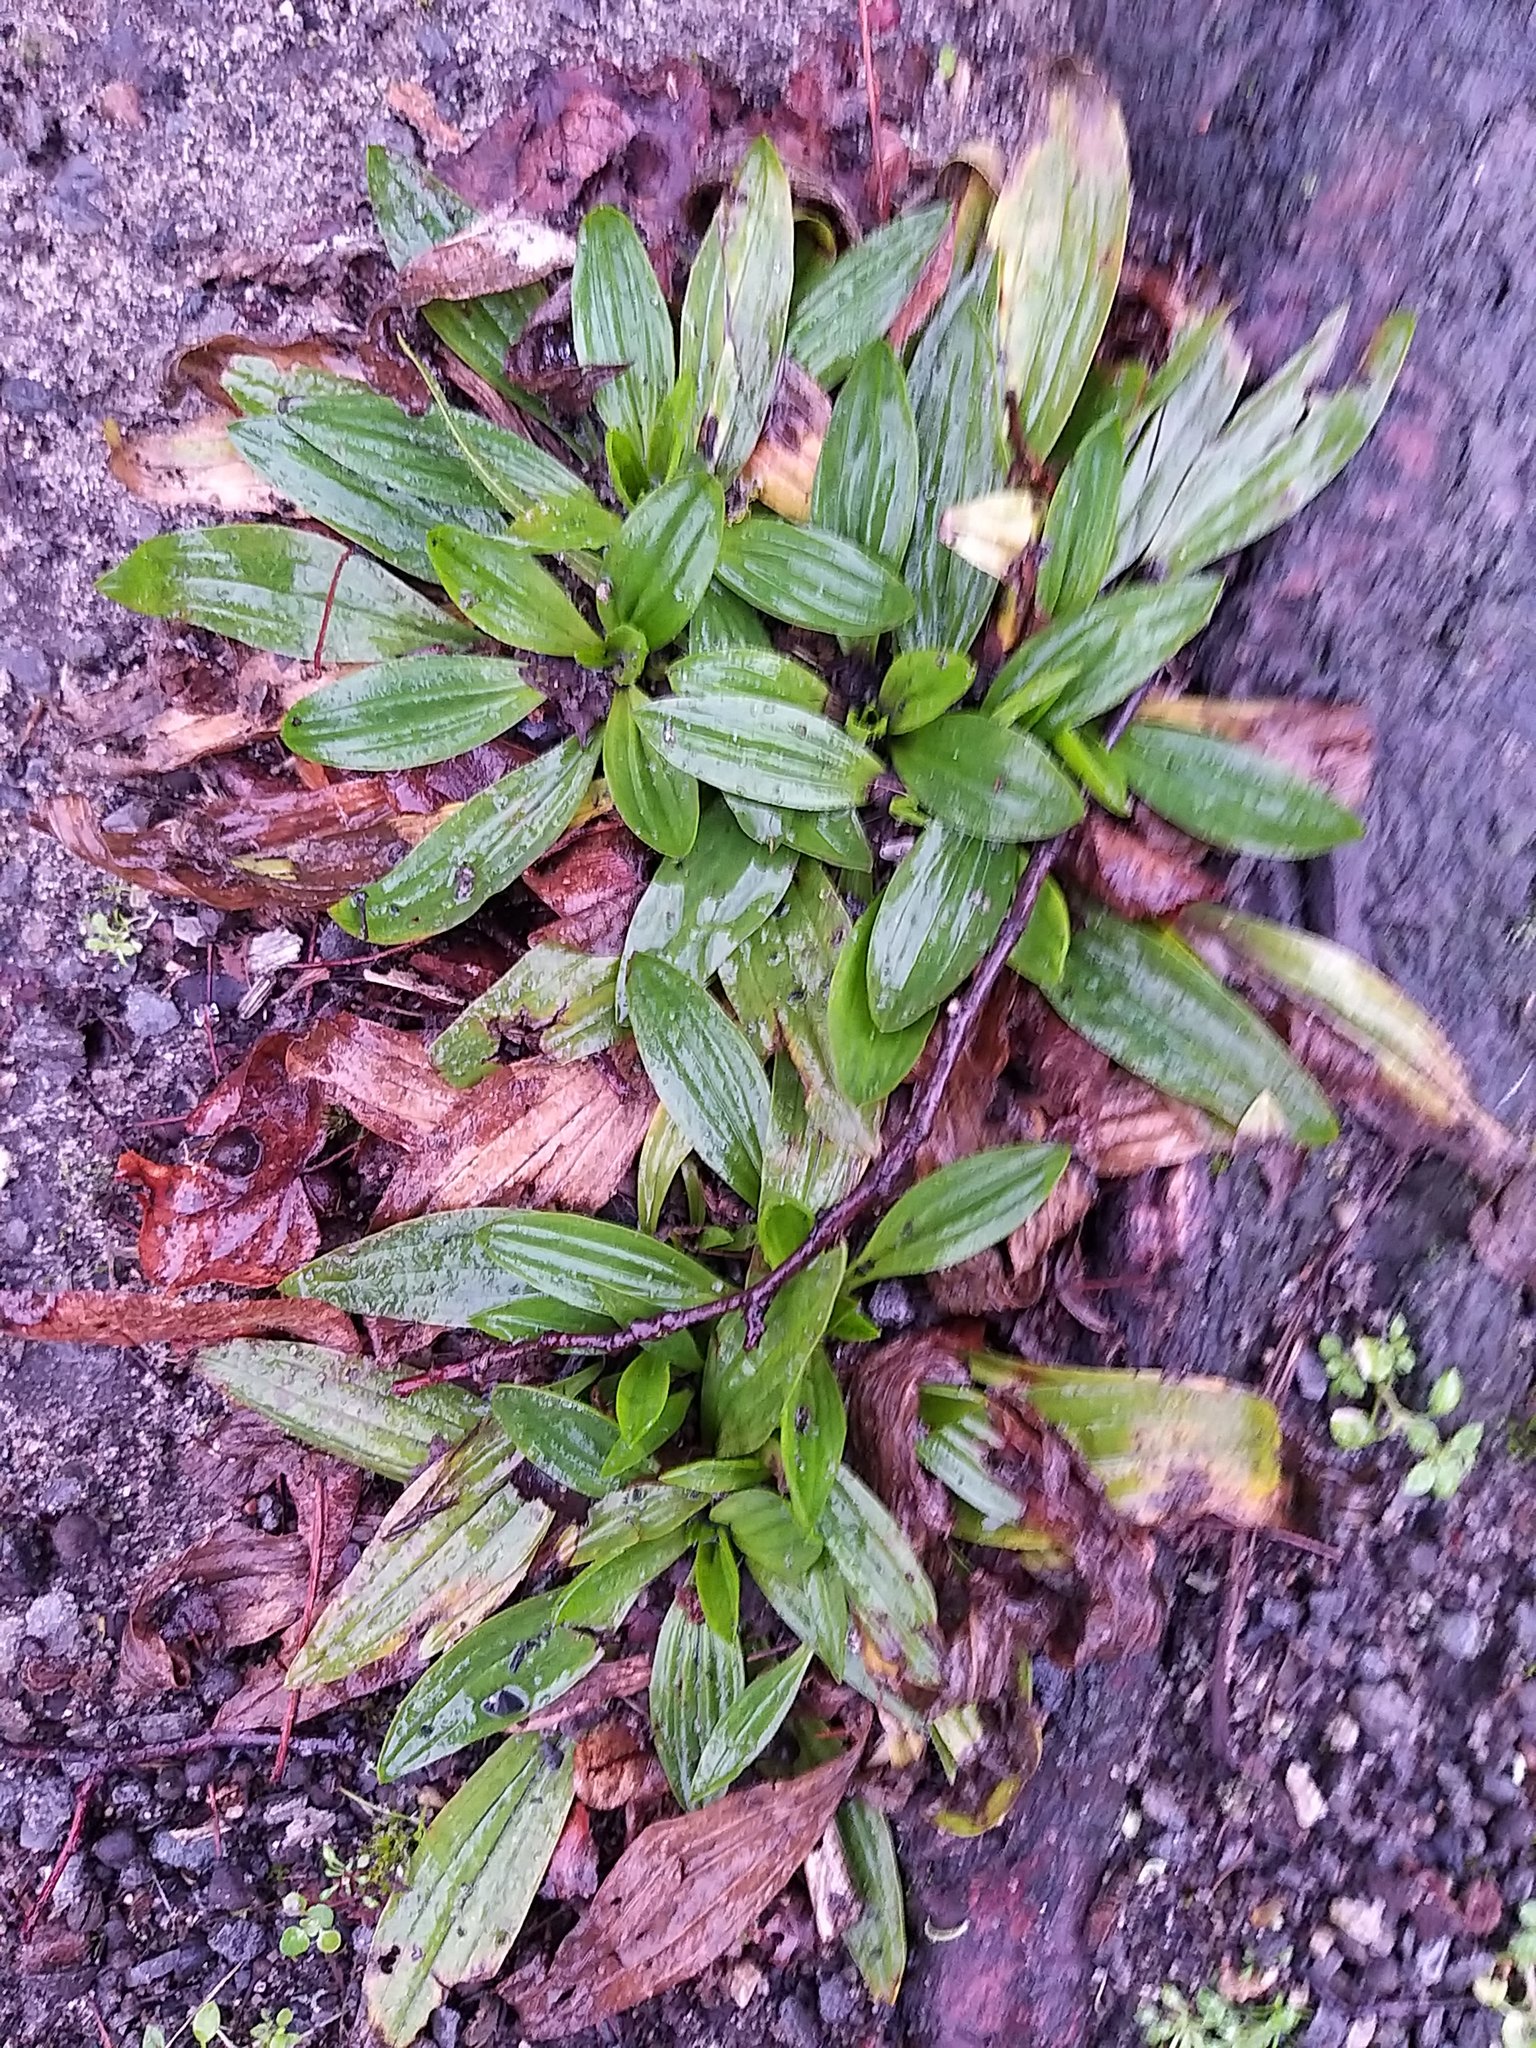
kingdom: Plantae
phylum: Tracheophyta
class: Magnoliopsida
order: Lamiales
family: Plantaginaceae
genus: Plantago
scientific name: Plantago lanceolata
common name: Ribwort plantain
